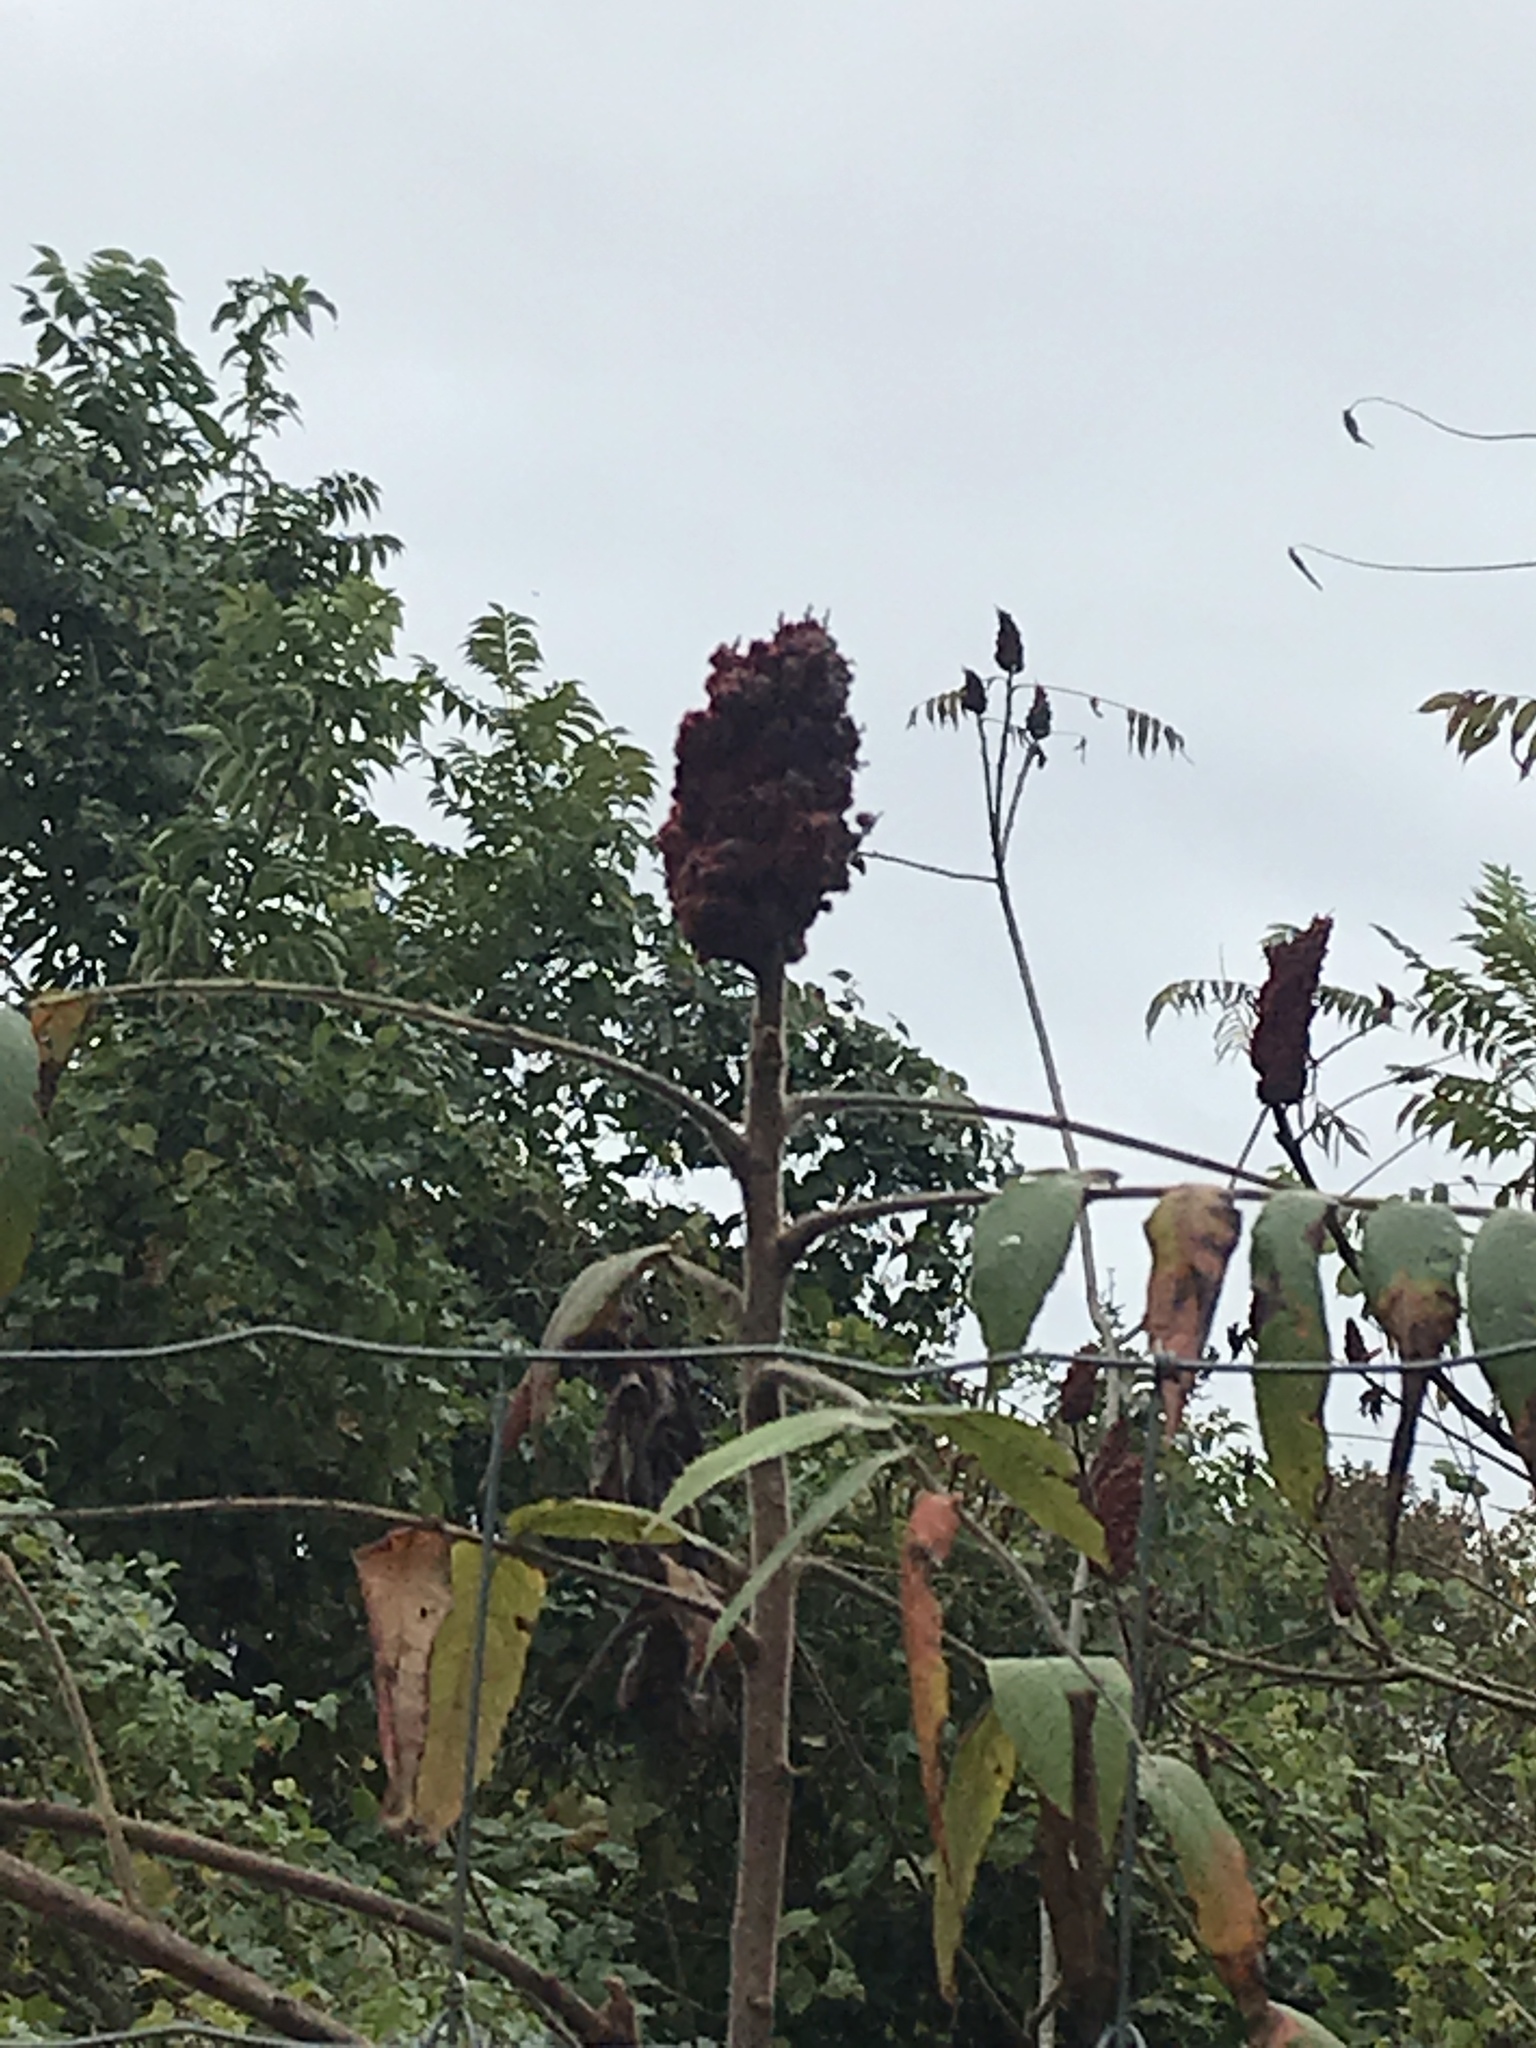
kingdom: Plantae
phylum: Tracheophyta
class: Magnoliopsida
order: Sapindales
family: Anacardiaceae
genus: Rhus
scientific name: Rhus typhina
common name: Staghorn sumac
